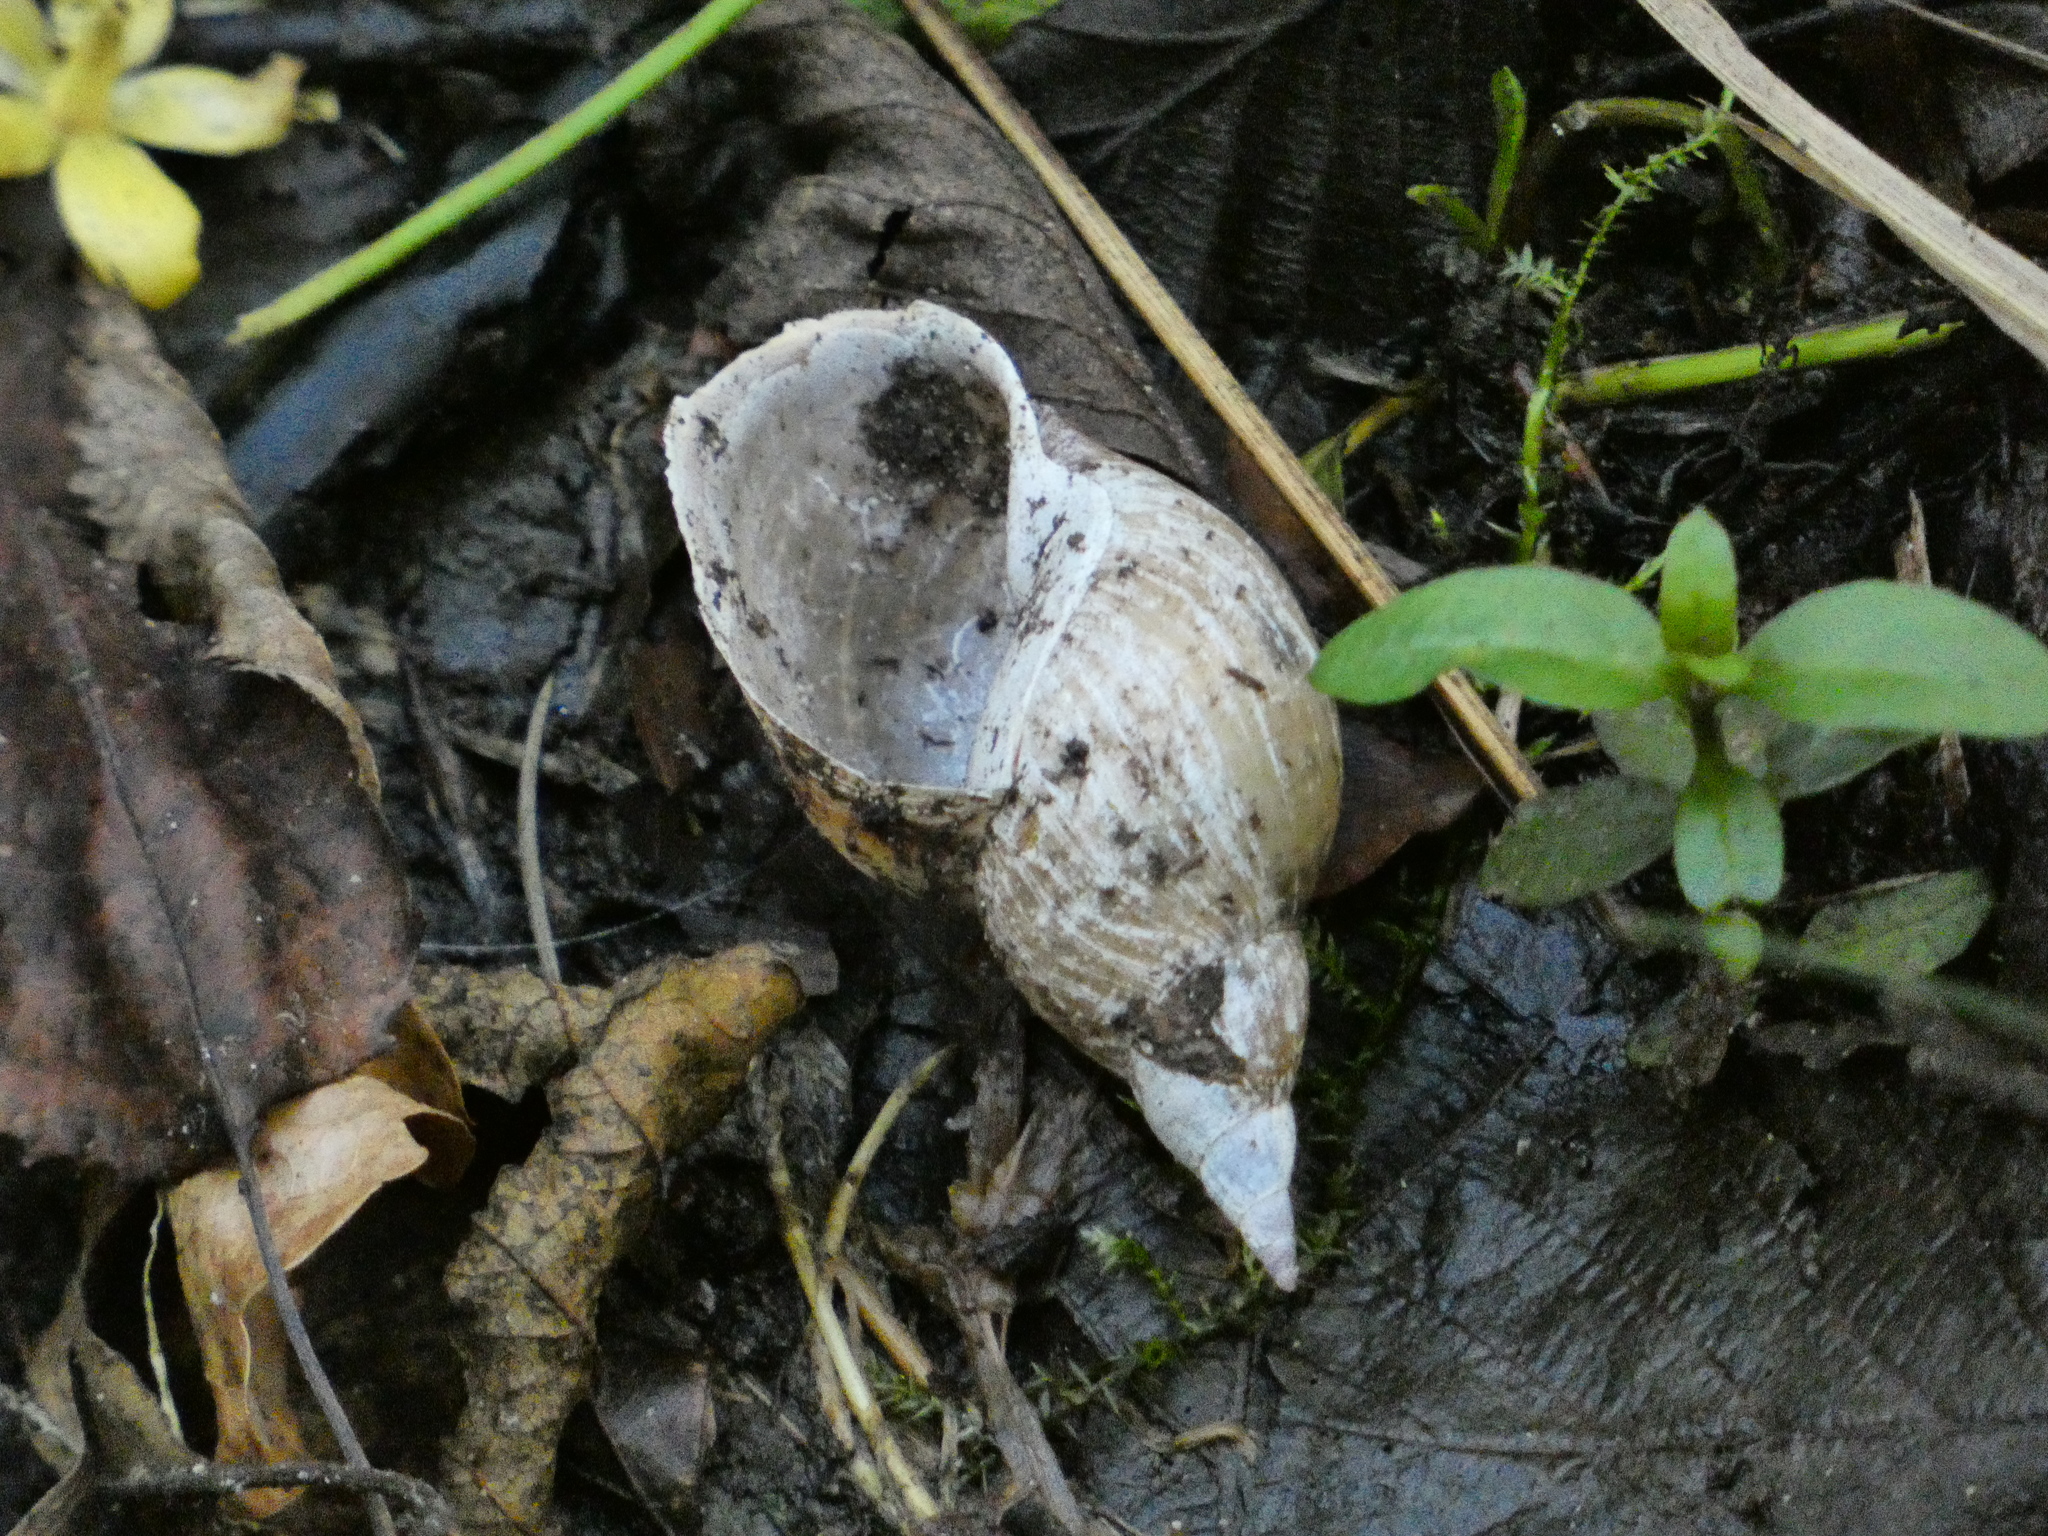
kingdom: Animalia
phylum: Mollusca
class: Gastropoda
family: Lymnaeidae
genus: Lymnaea
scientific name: Lymnaea stagnalis
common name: Great pond snail
